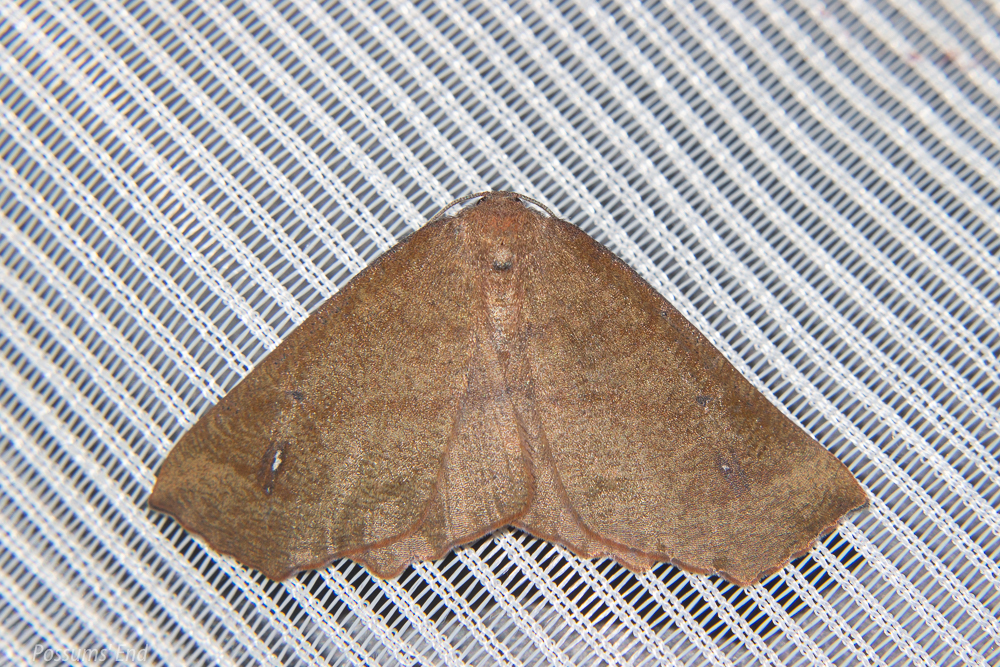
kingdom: Animalia
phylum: Arthropoda
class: Insecta
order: Lepidoptera
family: Geometridae
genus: Xyridacma
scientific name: Xyridacma alectoraria
